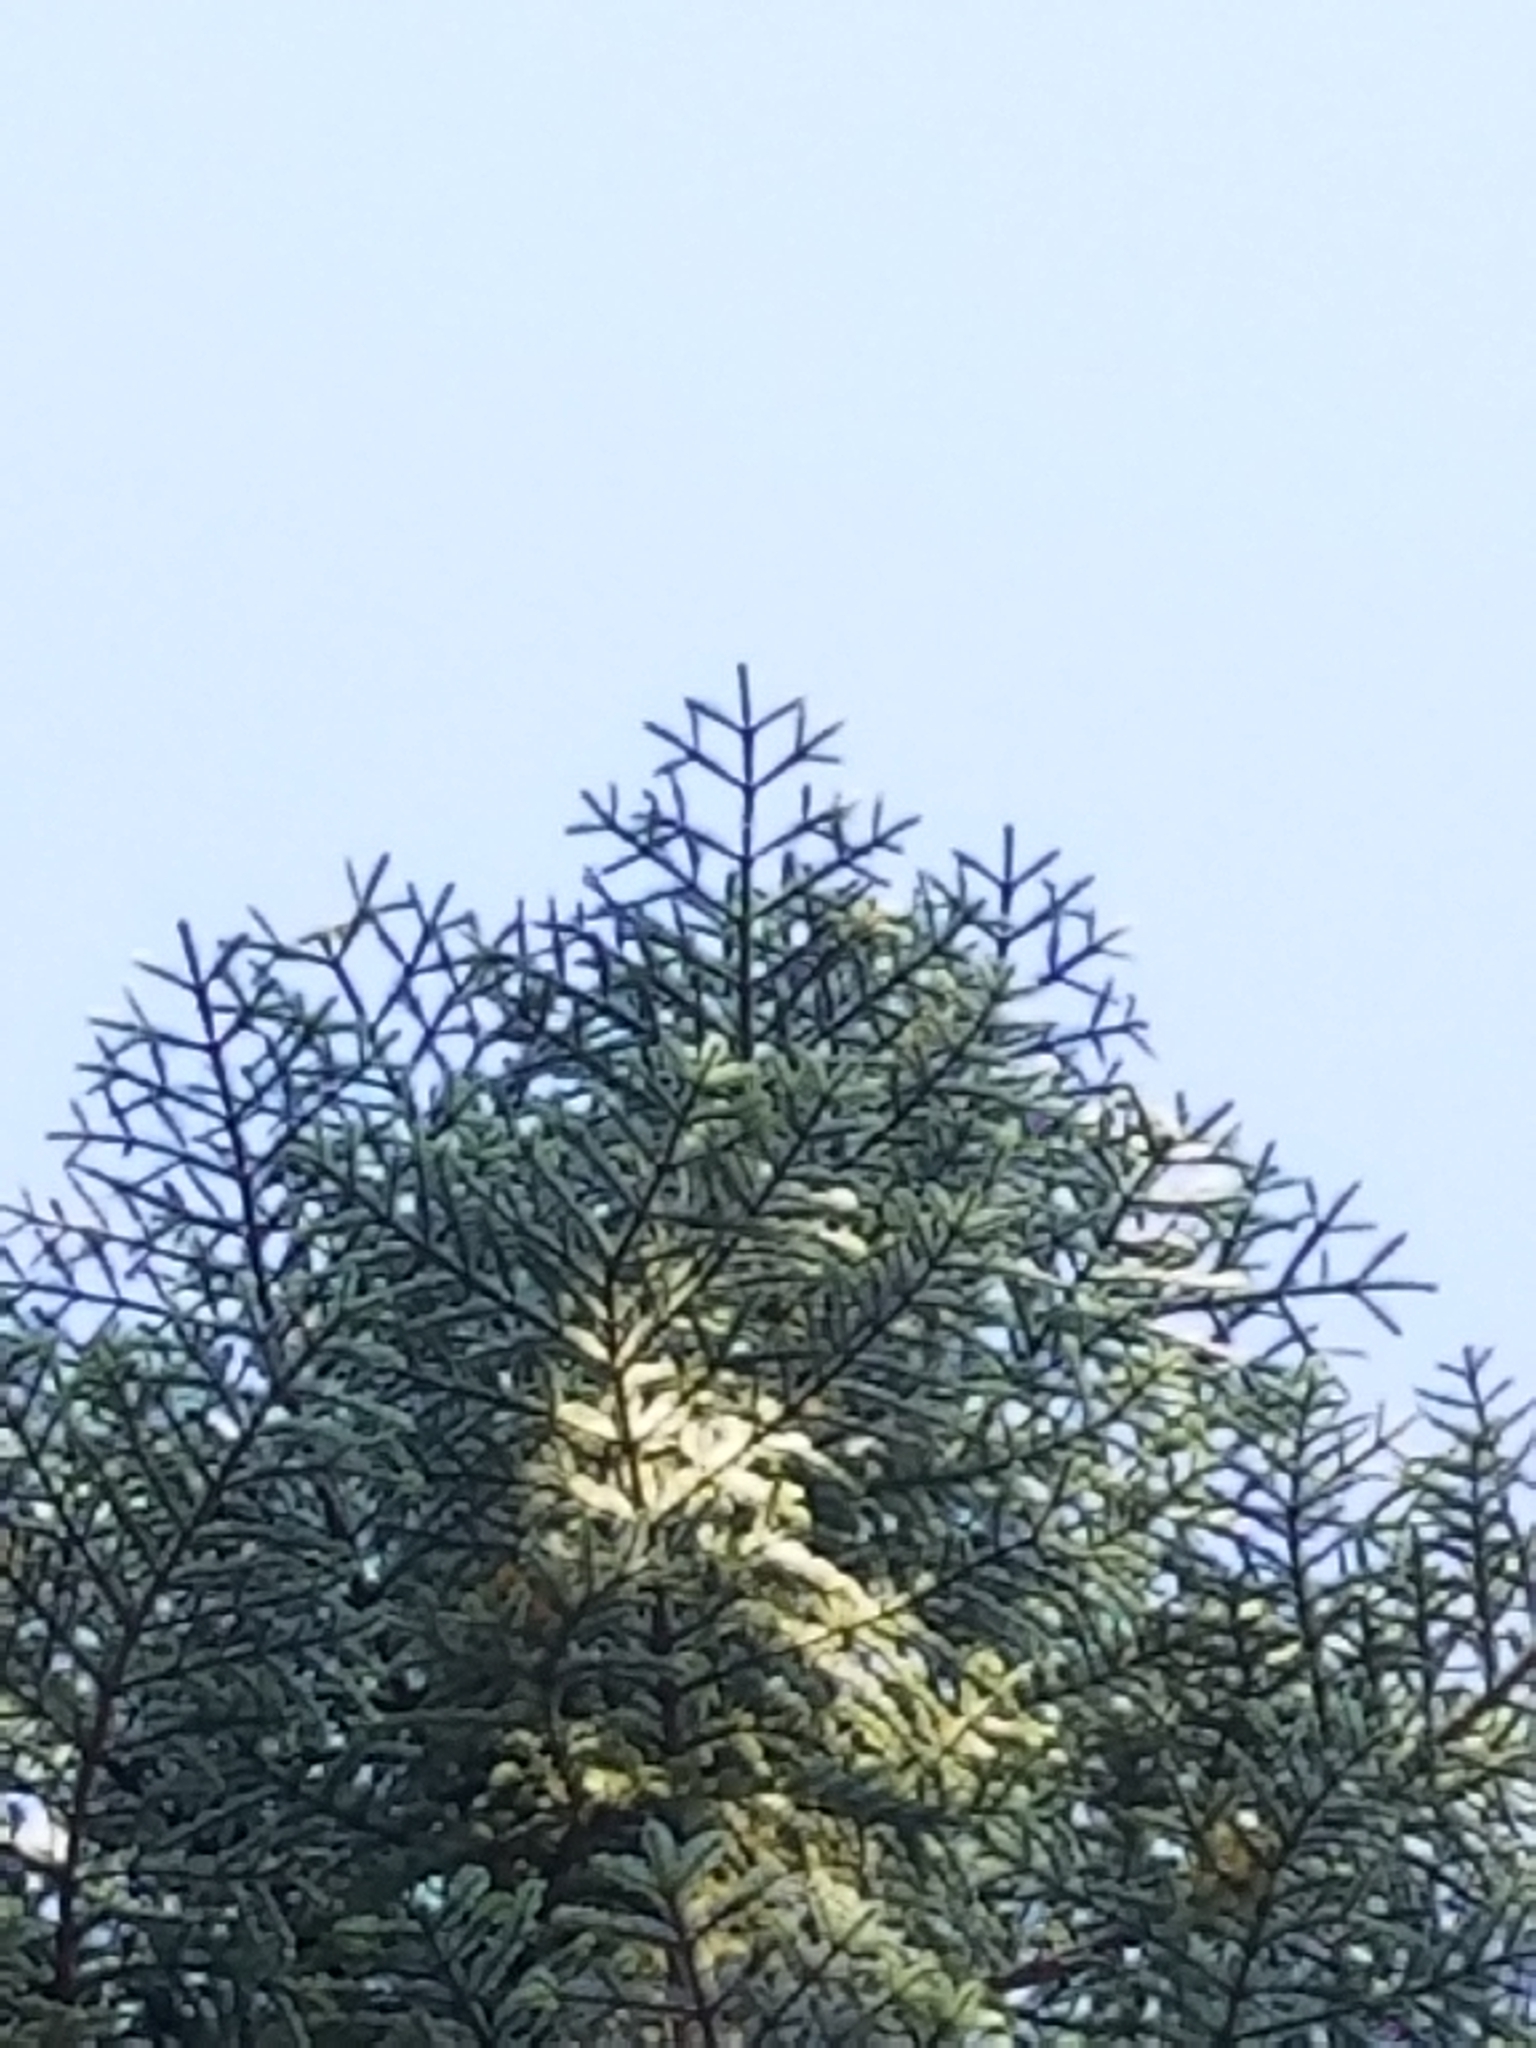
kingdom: Plantae
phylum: Tracheophyta
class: Pinopsida
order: Pinales
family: Pinaceae
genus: Abies
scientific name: Abies magnifica bis
